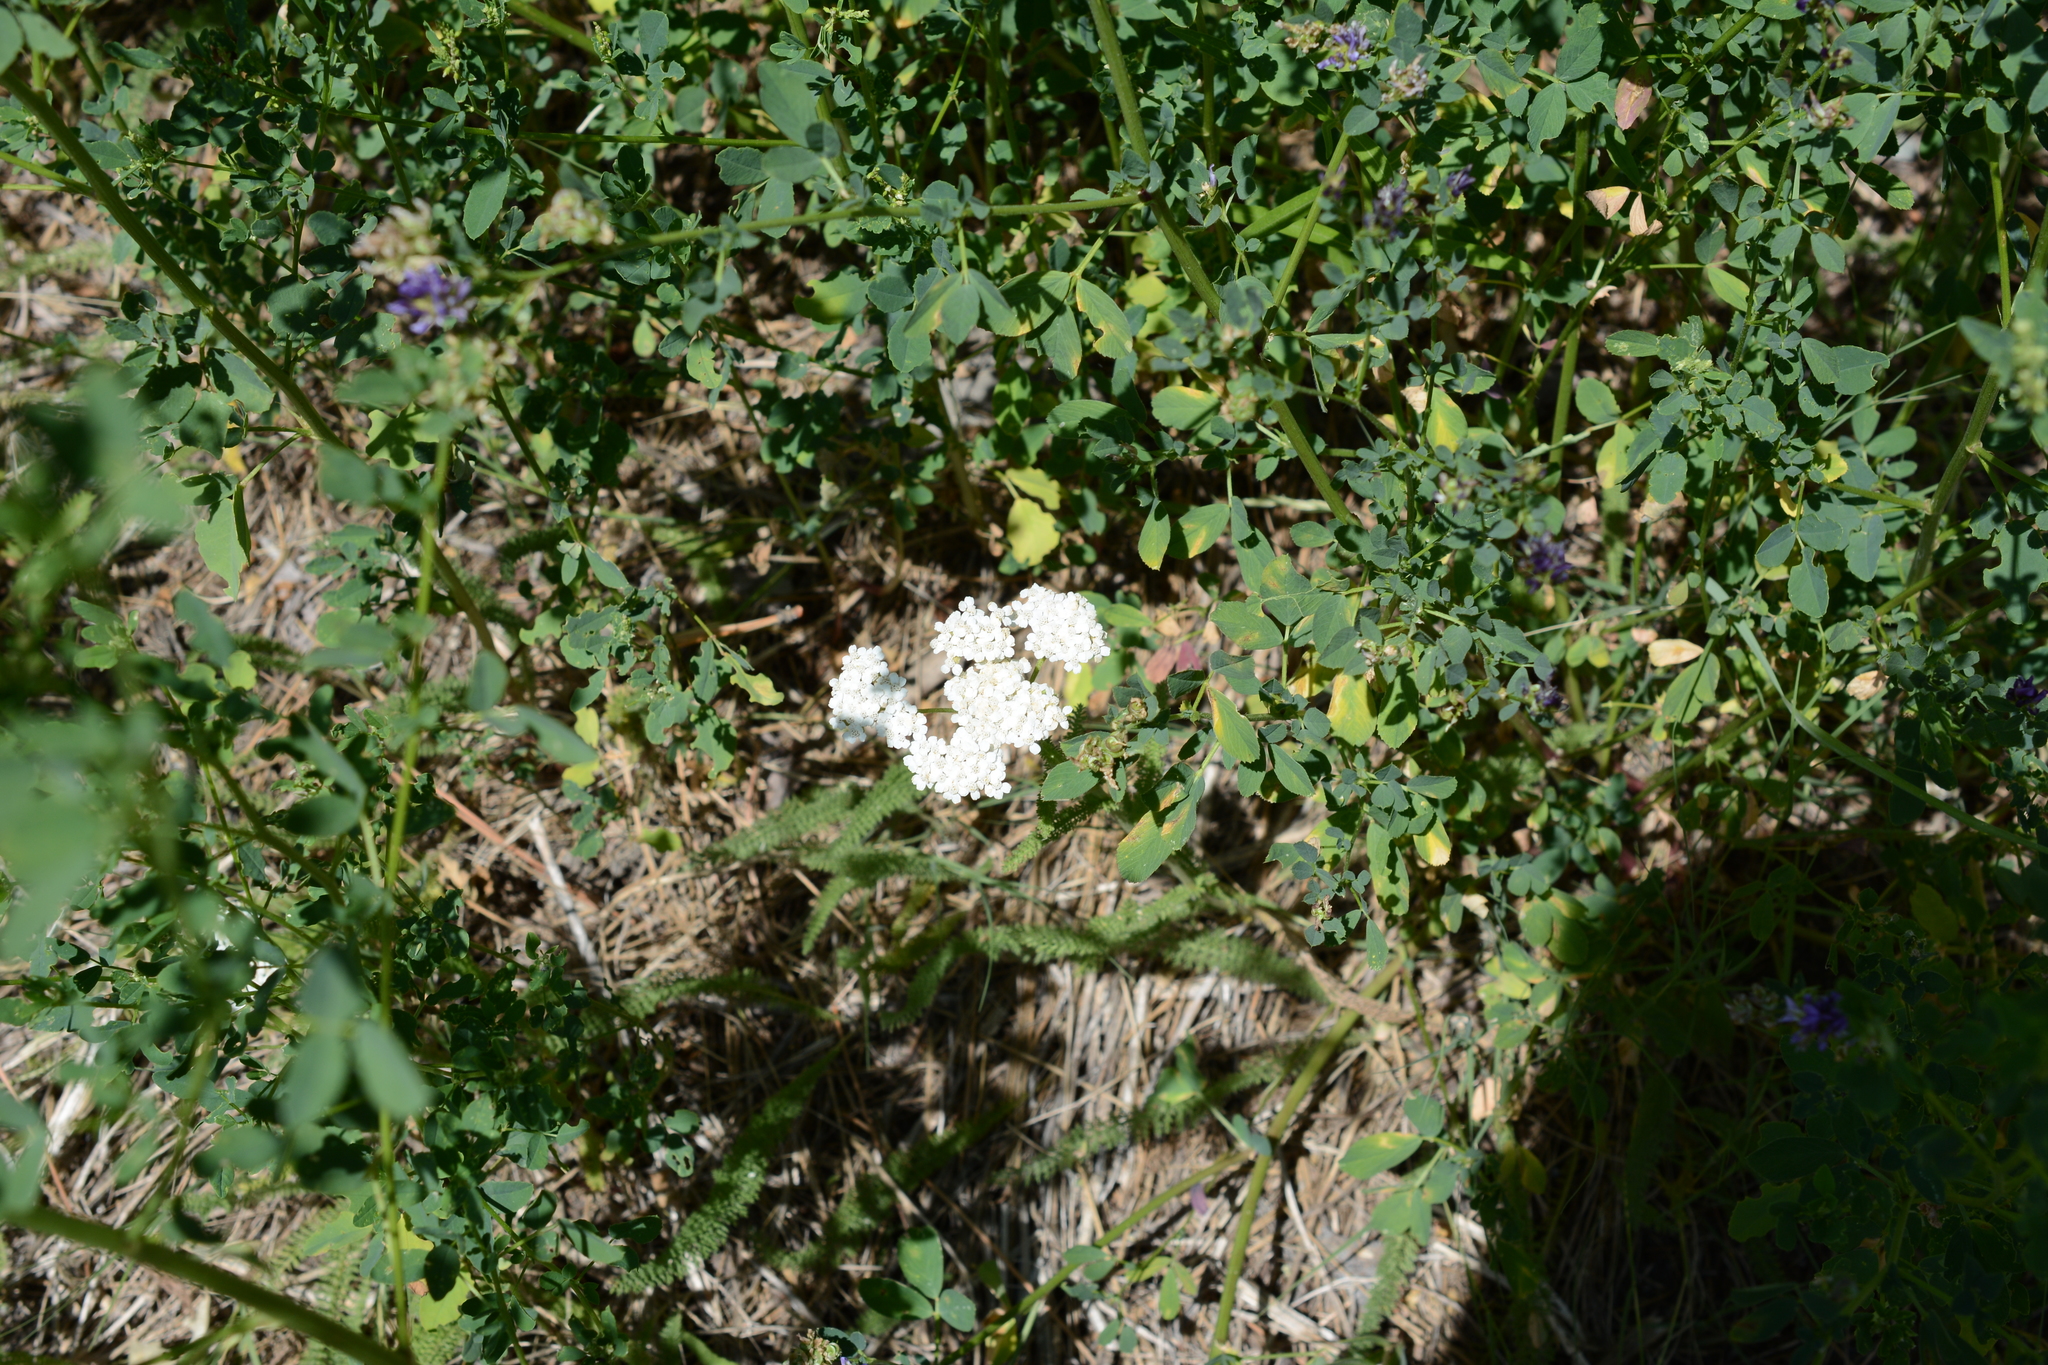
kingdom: Plantae
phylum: Tracheophyta
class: Magnoliopsida
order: Asterales
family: Asteraceae
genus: Achillea
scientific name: Achillea millefolium
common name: Yarrow
